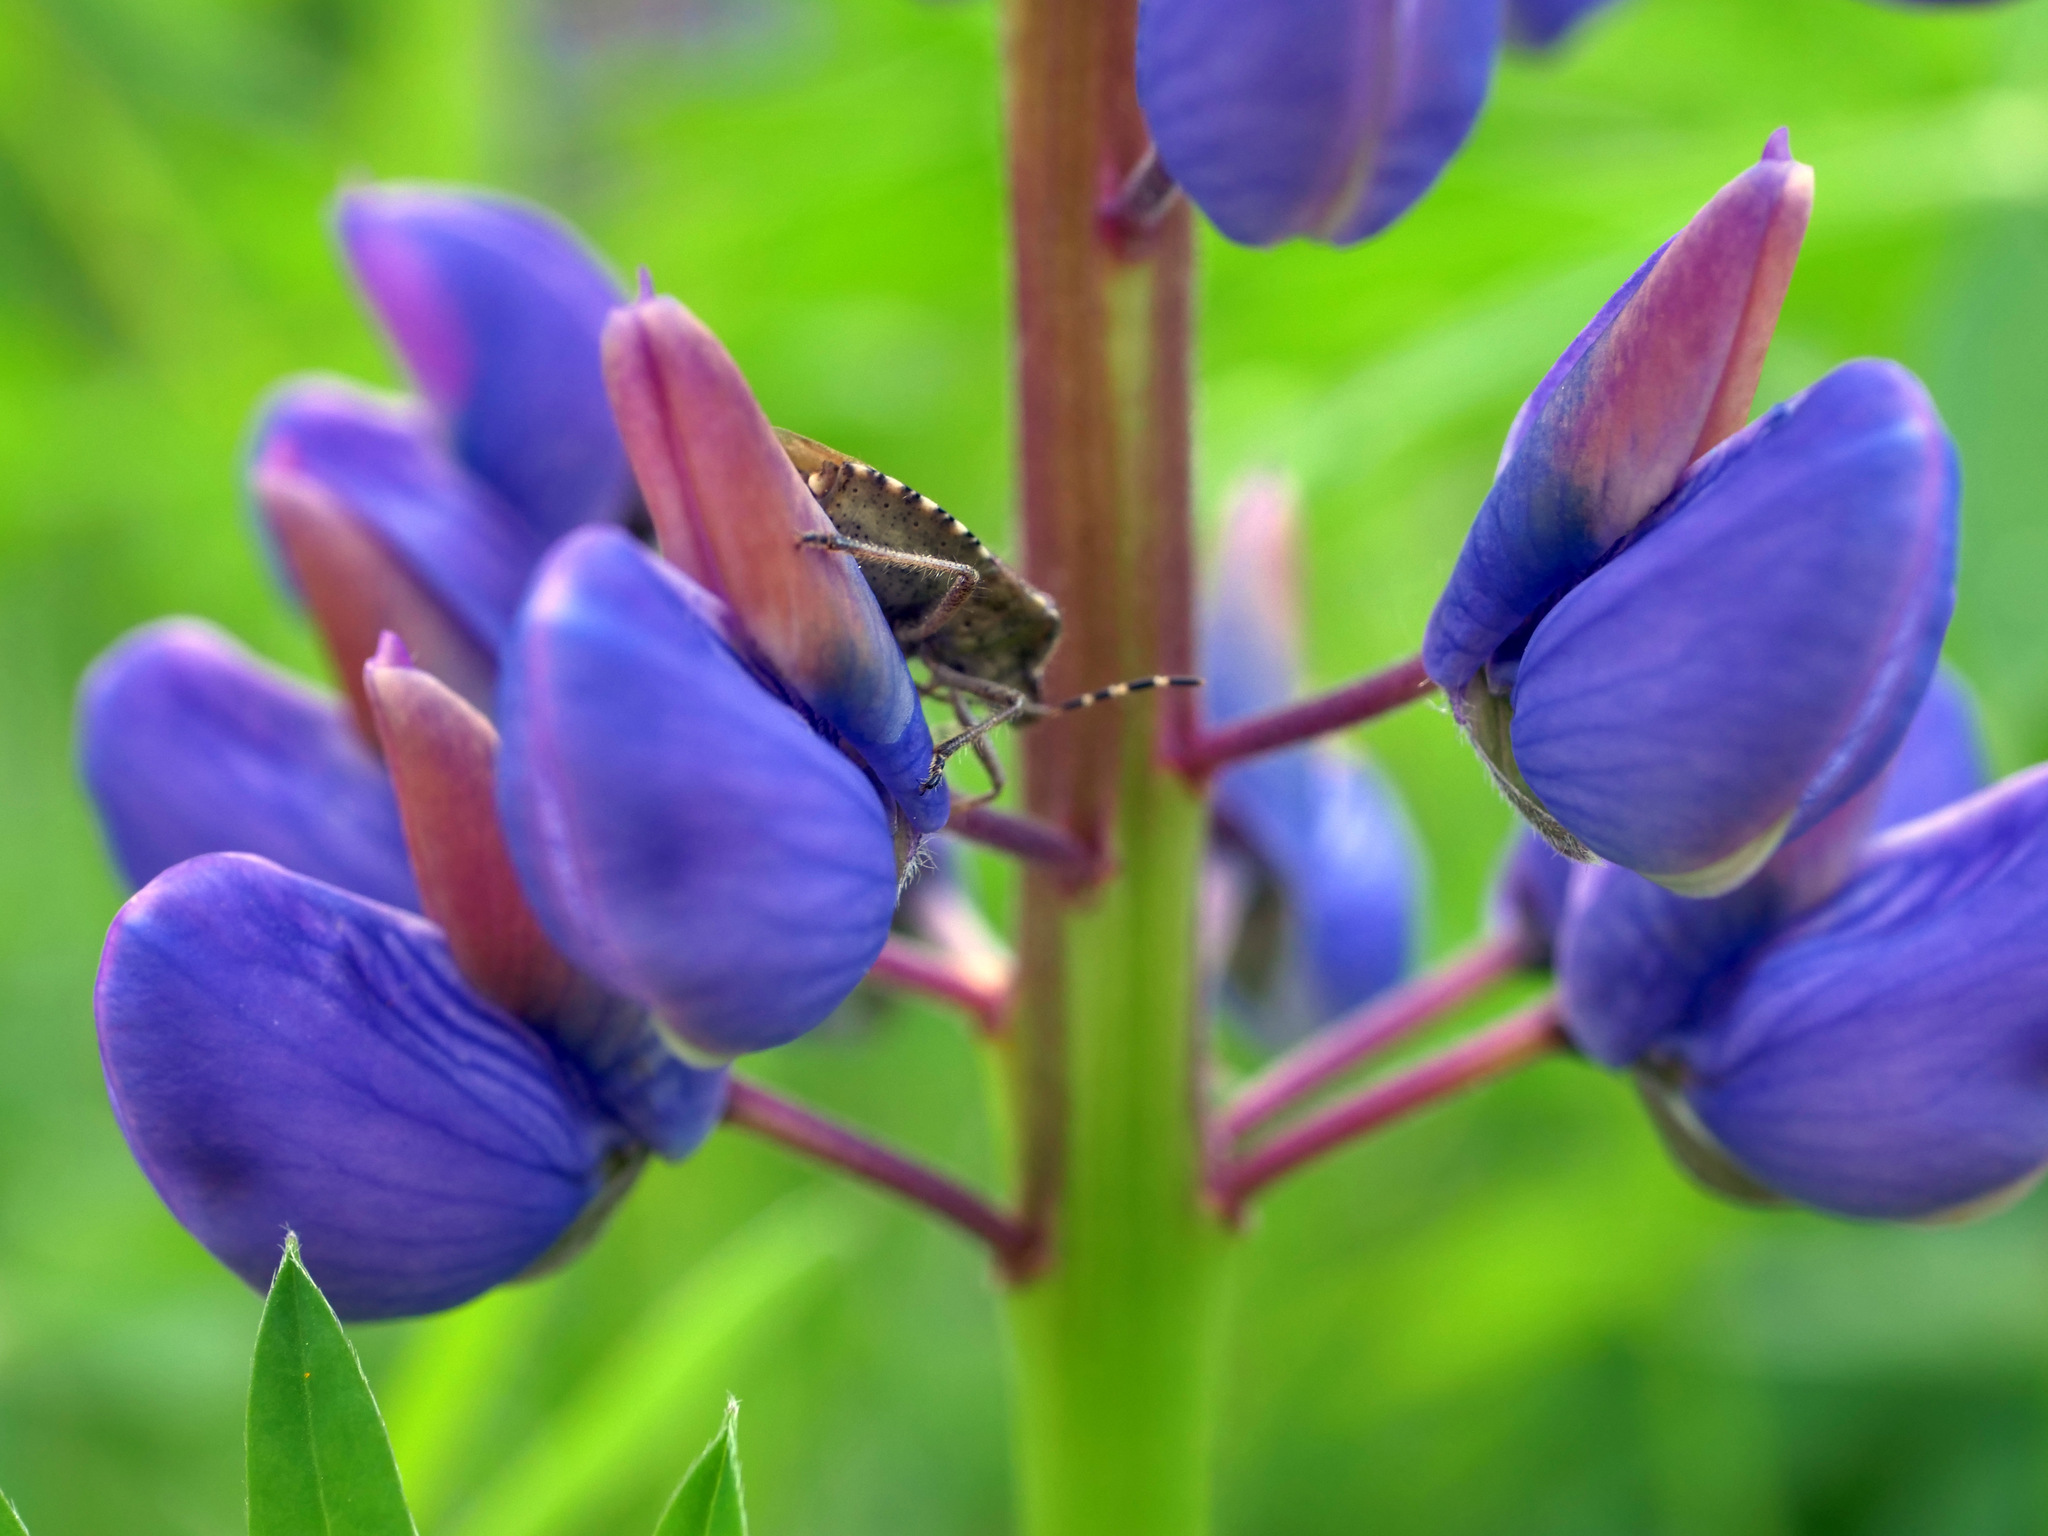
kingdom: Plantae
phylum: Tracheophyta
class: Magnoliopsida
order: Fabales
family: Fabaceae
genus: Lupinus
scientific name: Lupinus polyphyllus
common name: Garden lupin
